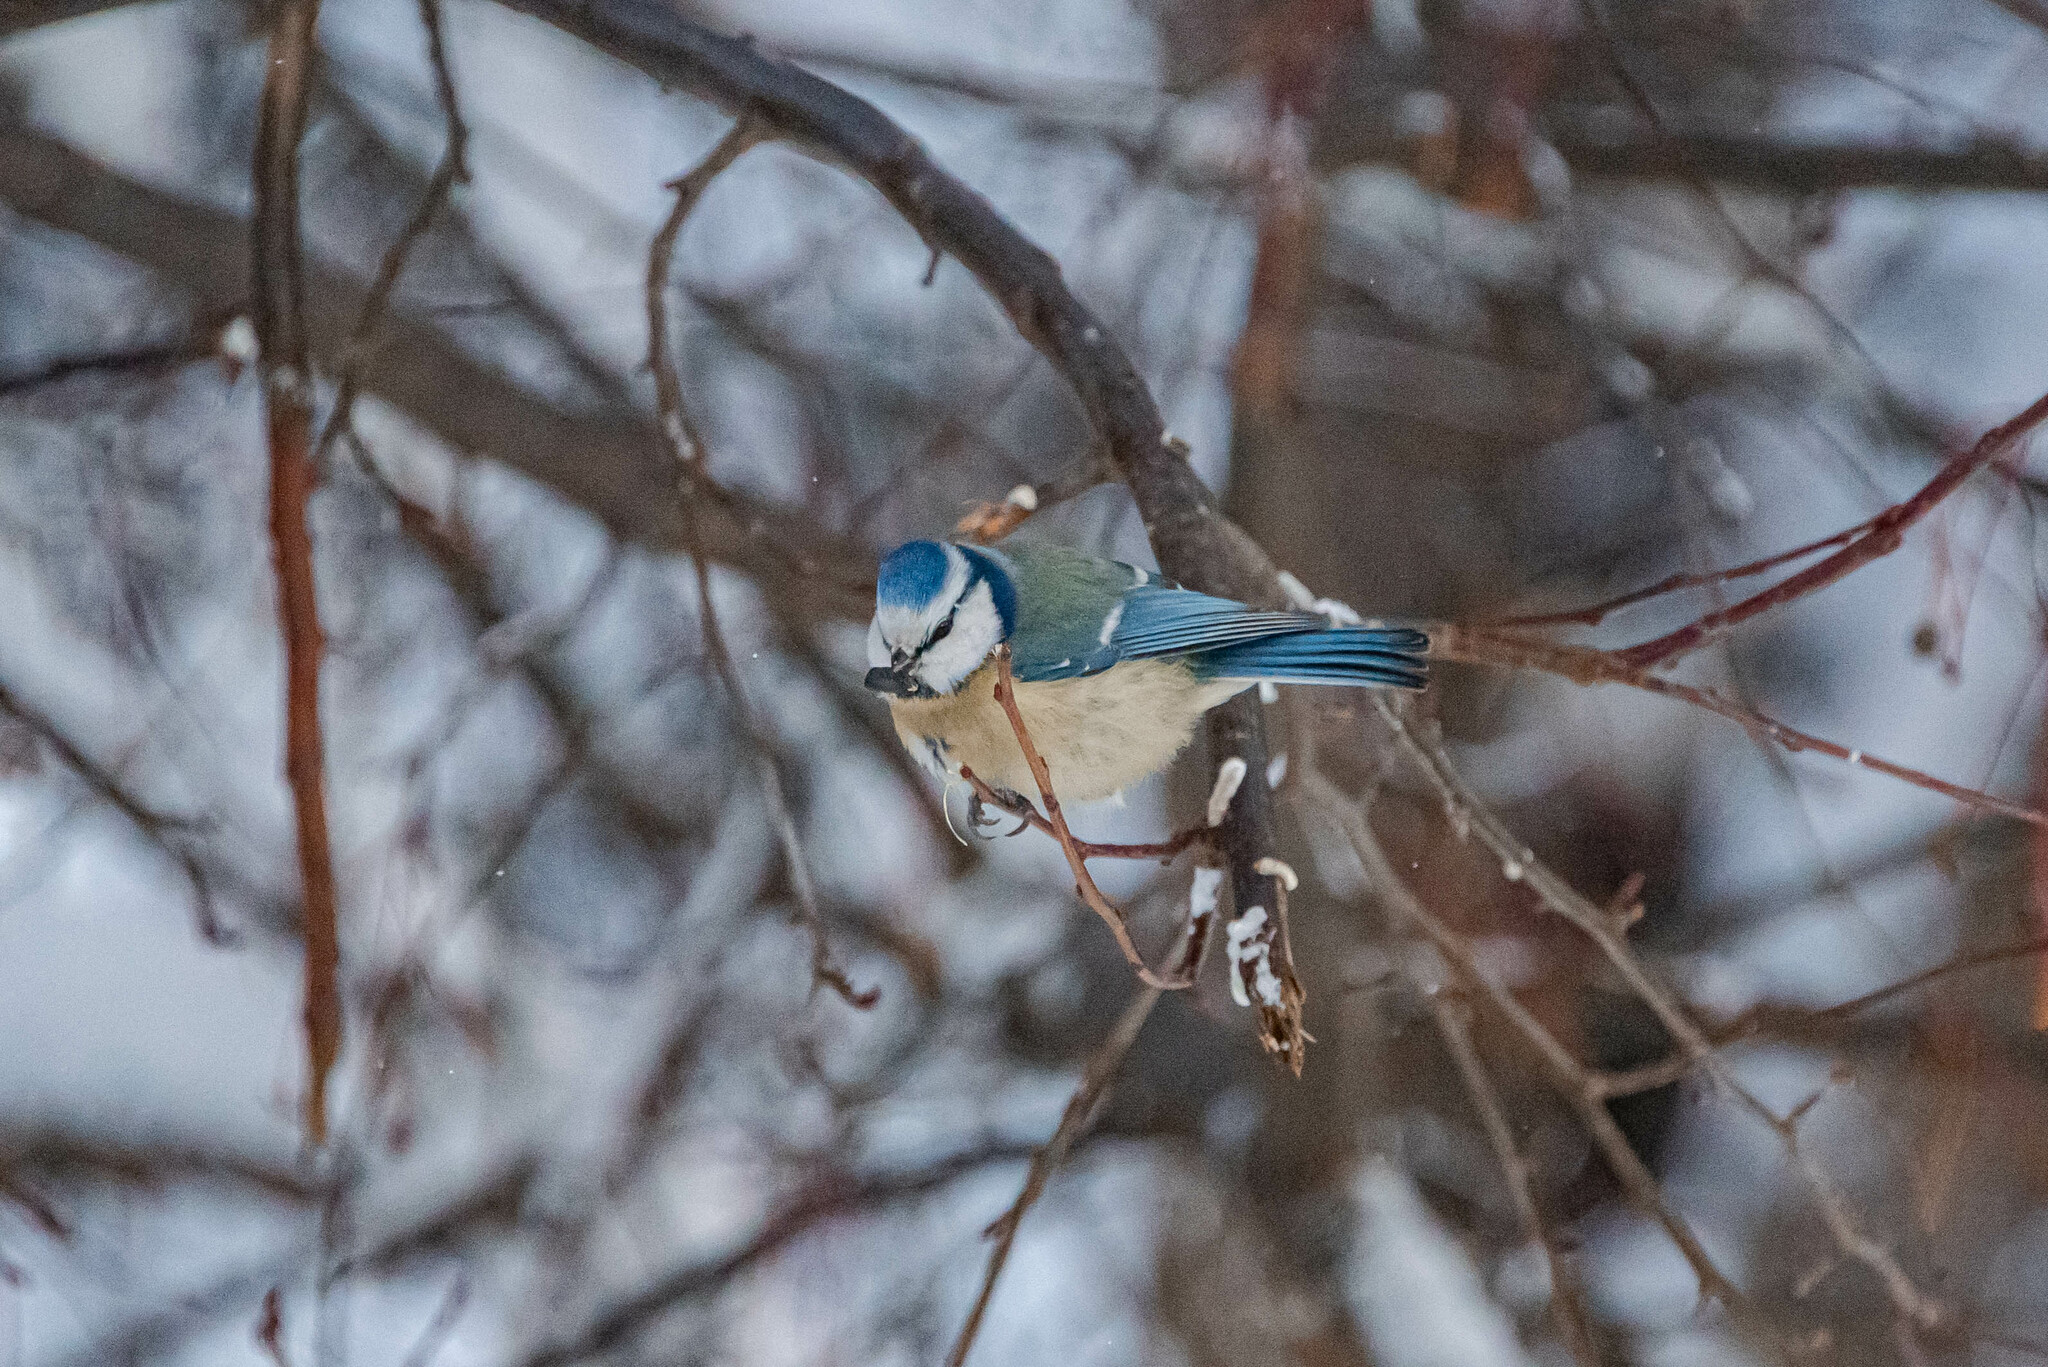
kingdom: Animalia
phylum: Chordata
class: Aves
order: Passeriformes
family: Paridae
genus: Cyanistes
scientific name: Cyanistes caeruleus
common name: Eurasian blue tit
